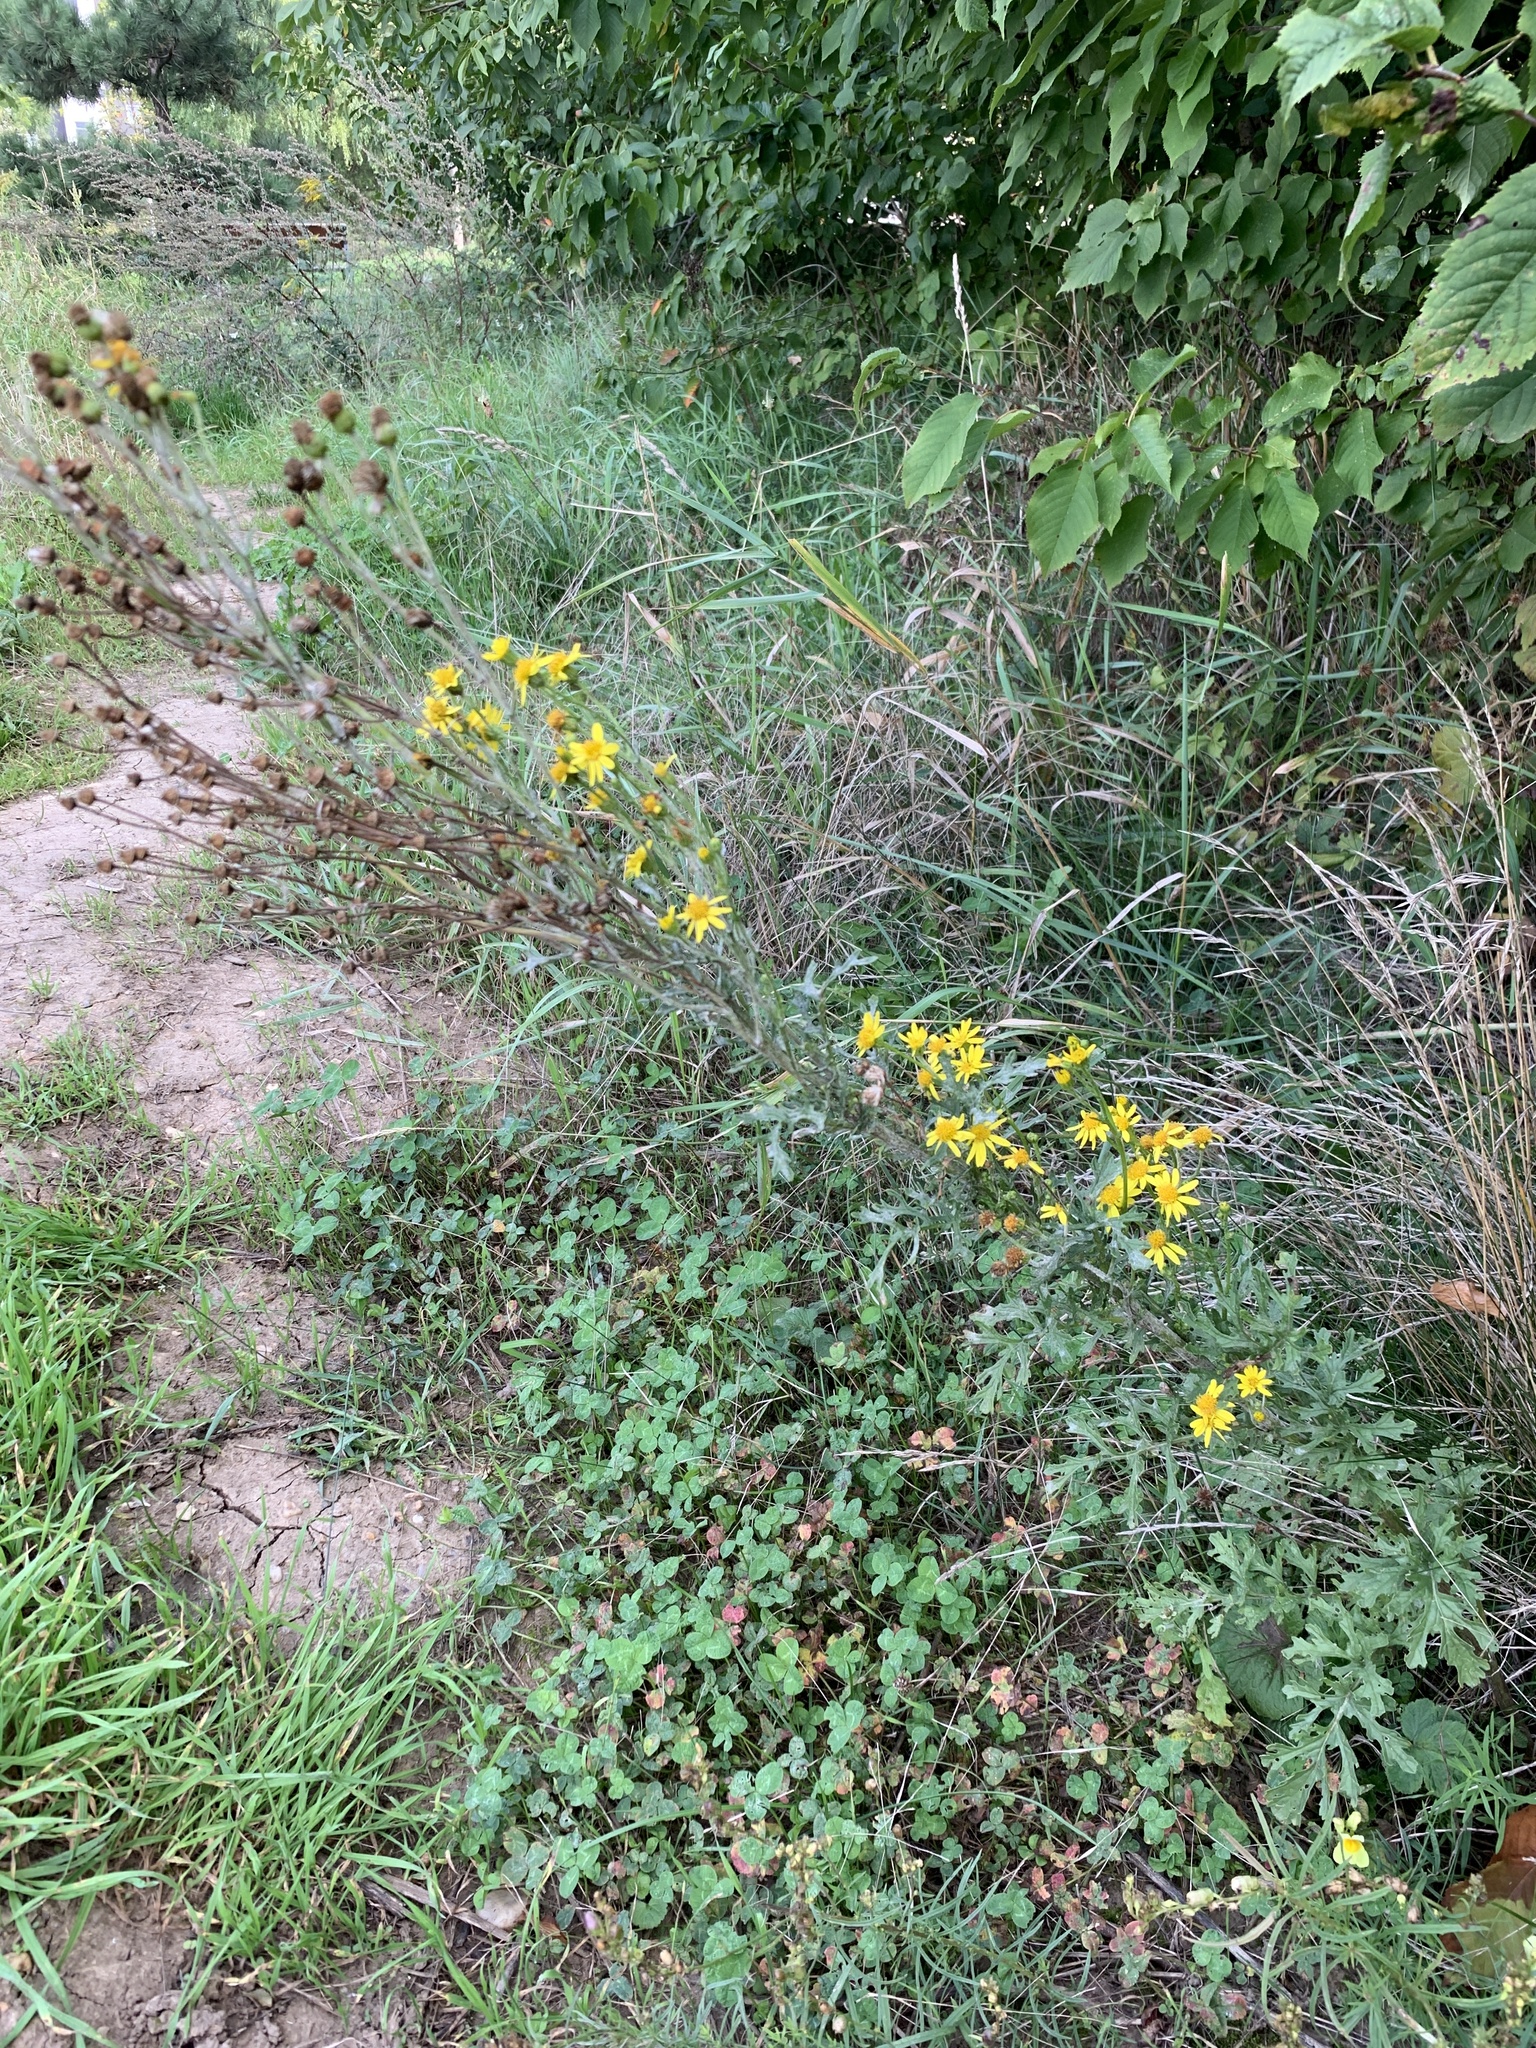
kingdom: Plantae
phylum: Tracheophyta
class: Magnoliopsida
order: Asterales
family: Asteraceae
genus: Jacobaea
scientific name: Jacobaea vulgaris
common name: Stinking willie
